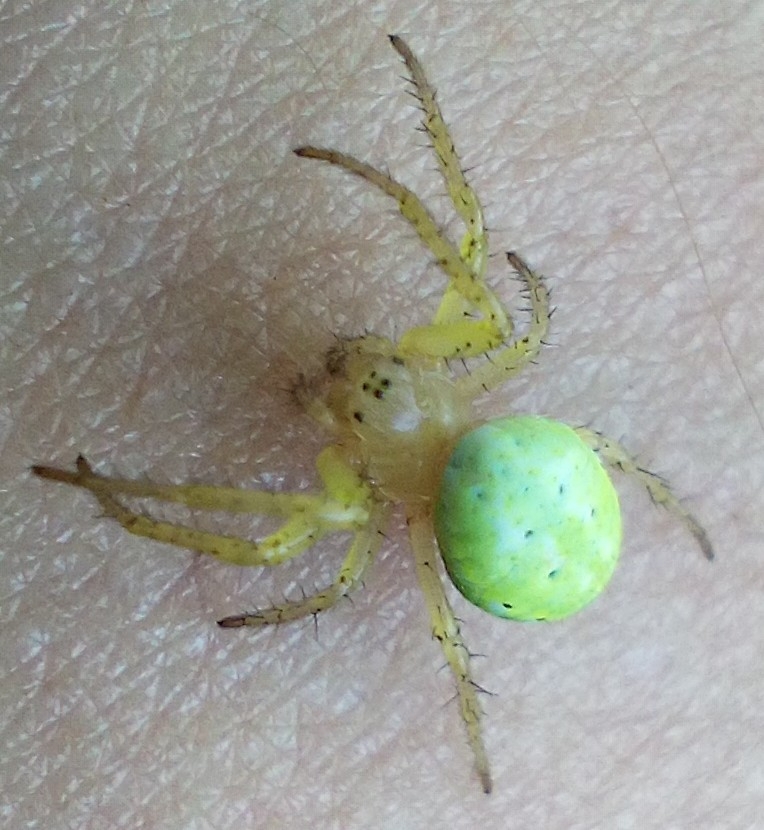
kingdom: Animalia
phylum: Arthropoda
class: Arachnida
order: Araneae
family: Araneidae
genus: Araniella
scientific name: Araniella cucurbitina
